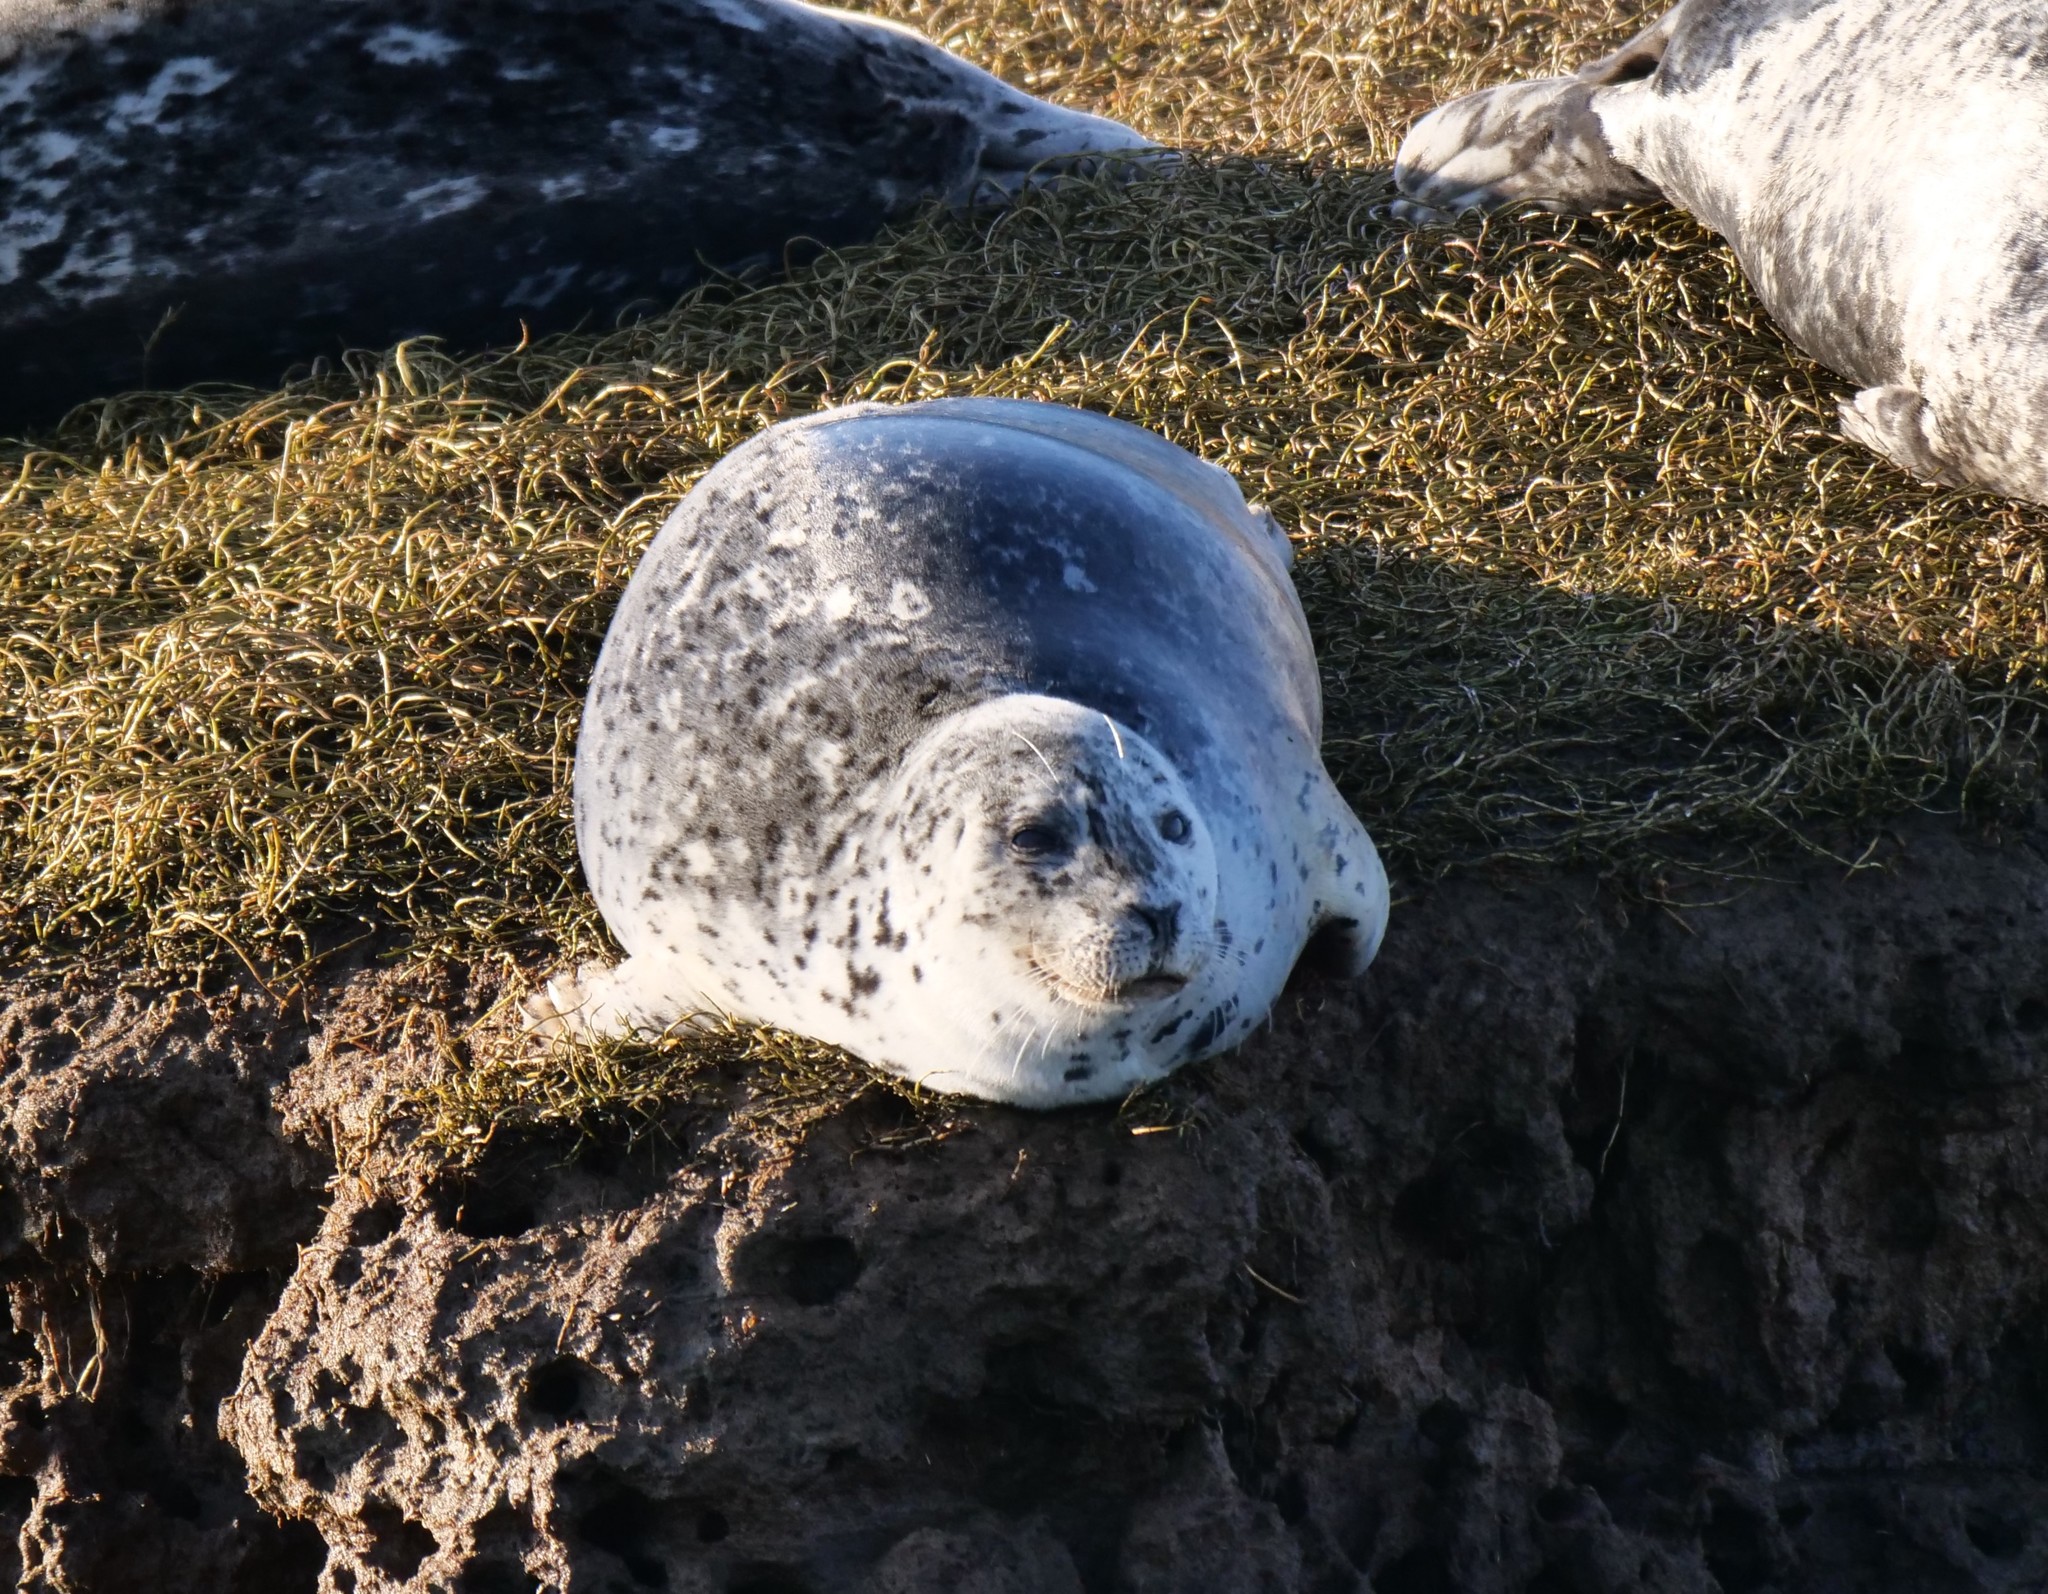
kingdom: Animalia
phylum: Chordata
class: Mammalia
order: Carnivora
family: Phocidae
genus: Phoca
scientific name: Phoca vitulina
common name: Harbor seal
